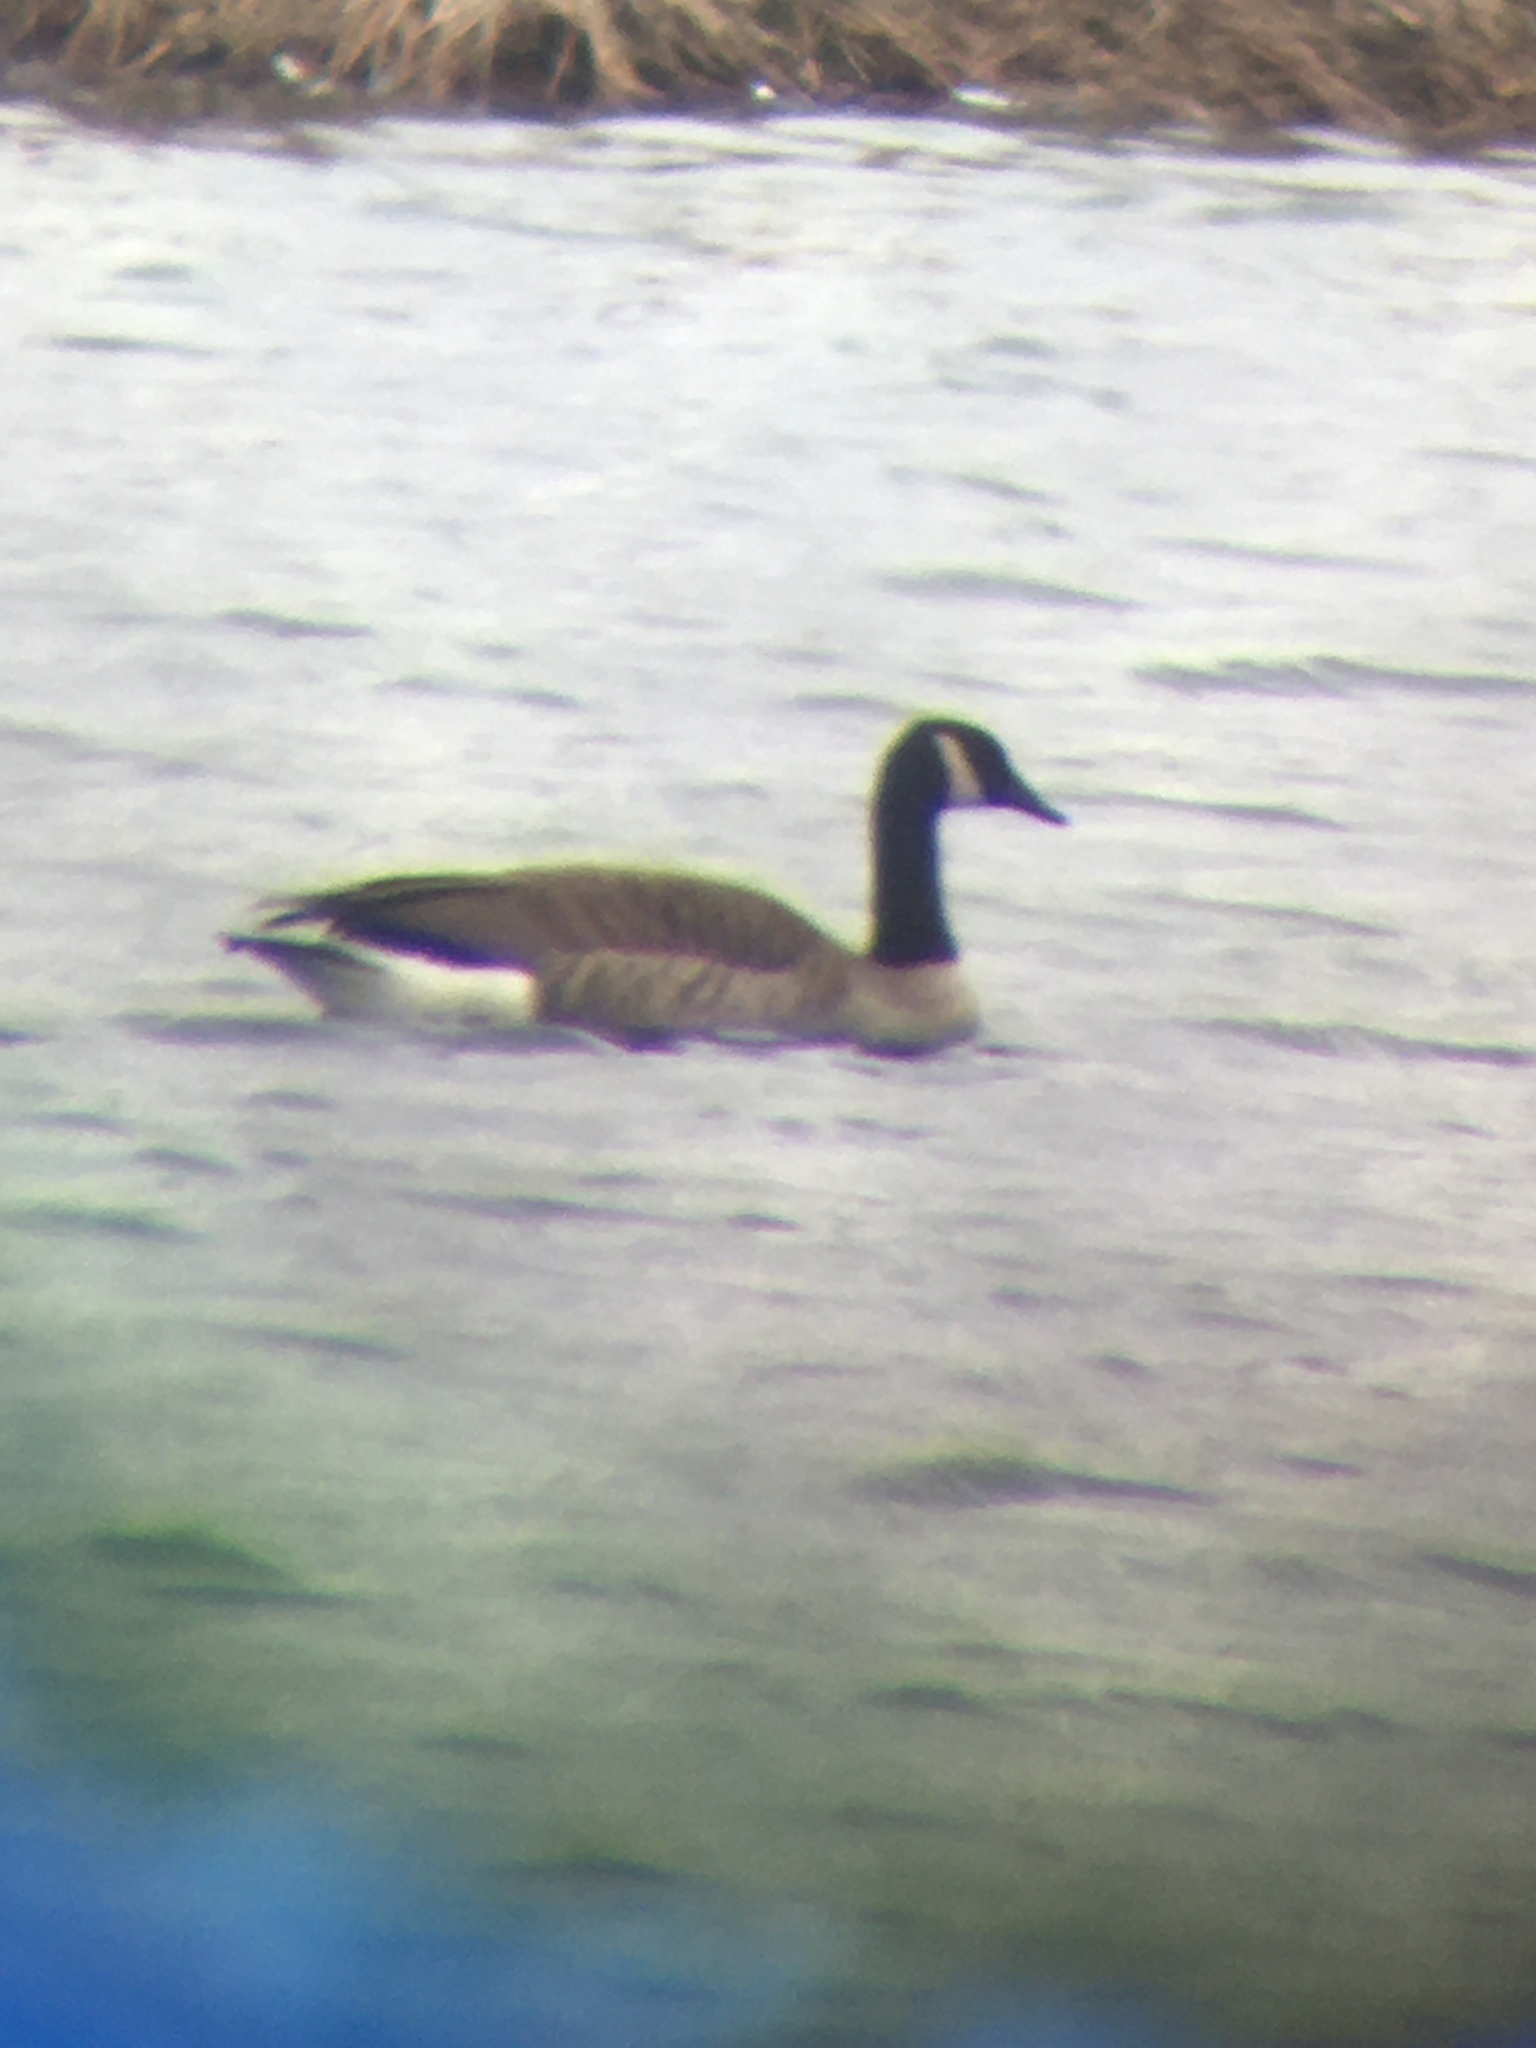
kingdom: Animalia
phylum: Chordata
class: Aves
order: Anseriformes
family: Anatidae
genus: Branta
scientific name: Branta canadensis
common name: Canada goose
